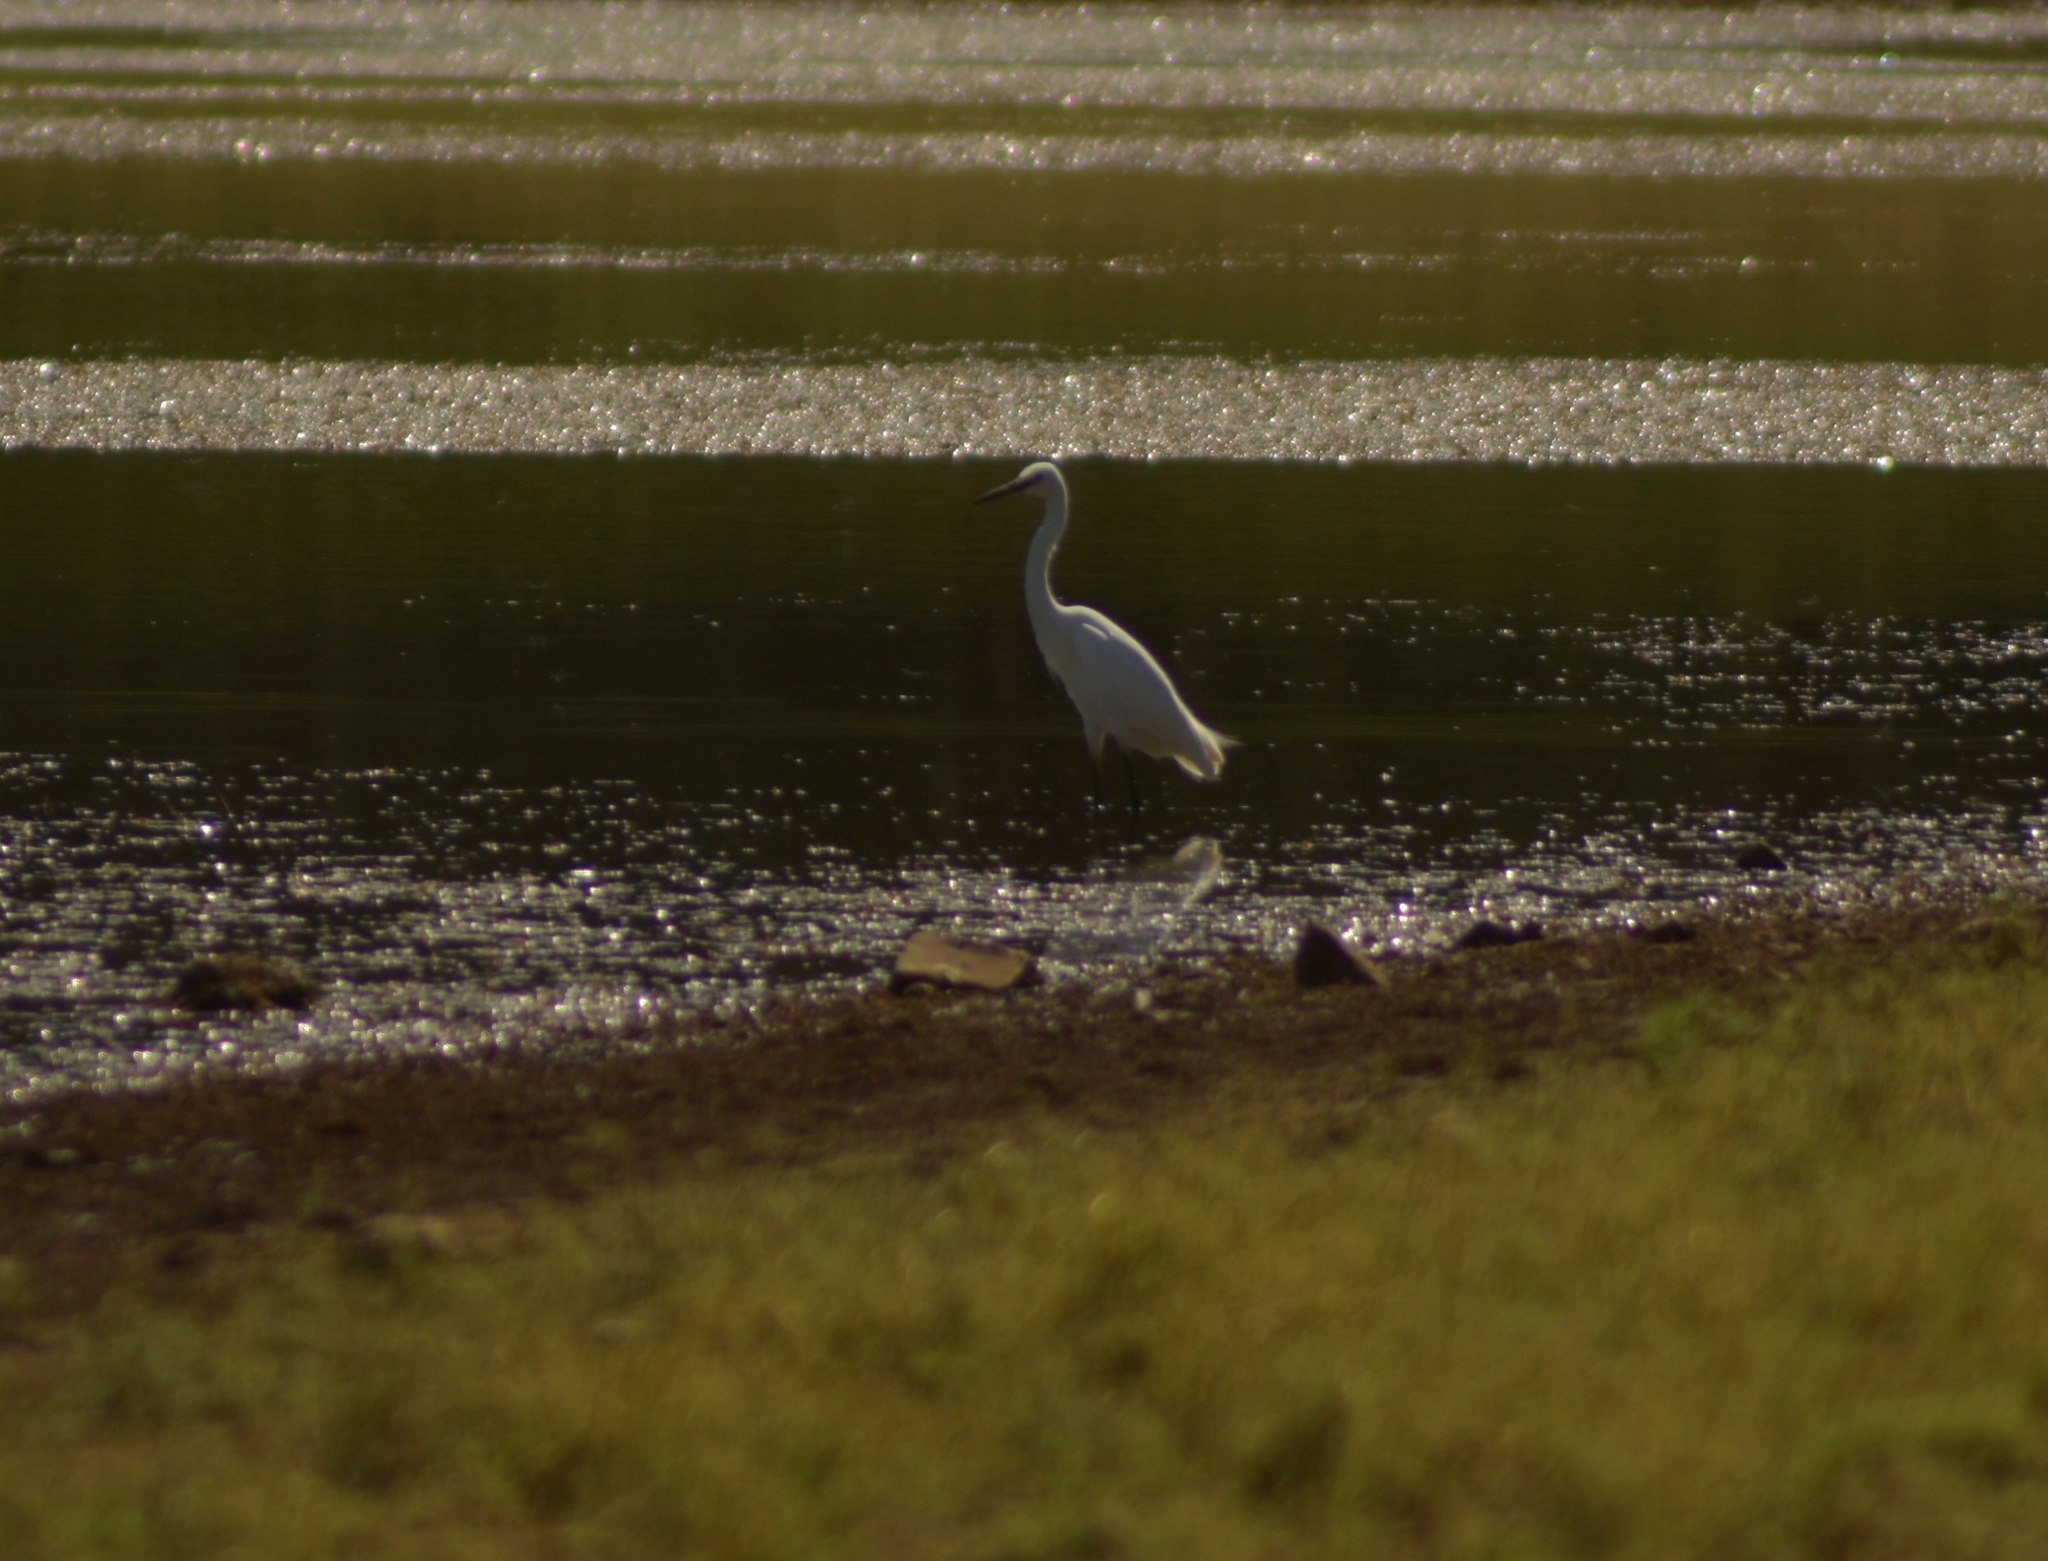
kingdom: Animalia
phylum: Chordata
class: Aves
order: Pelecaniformes
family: Ardeidae
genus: Egretta
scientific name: Egretta garzetta
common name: Little egret
